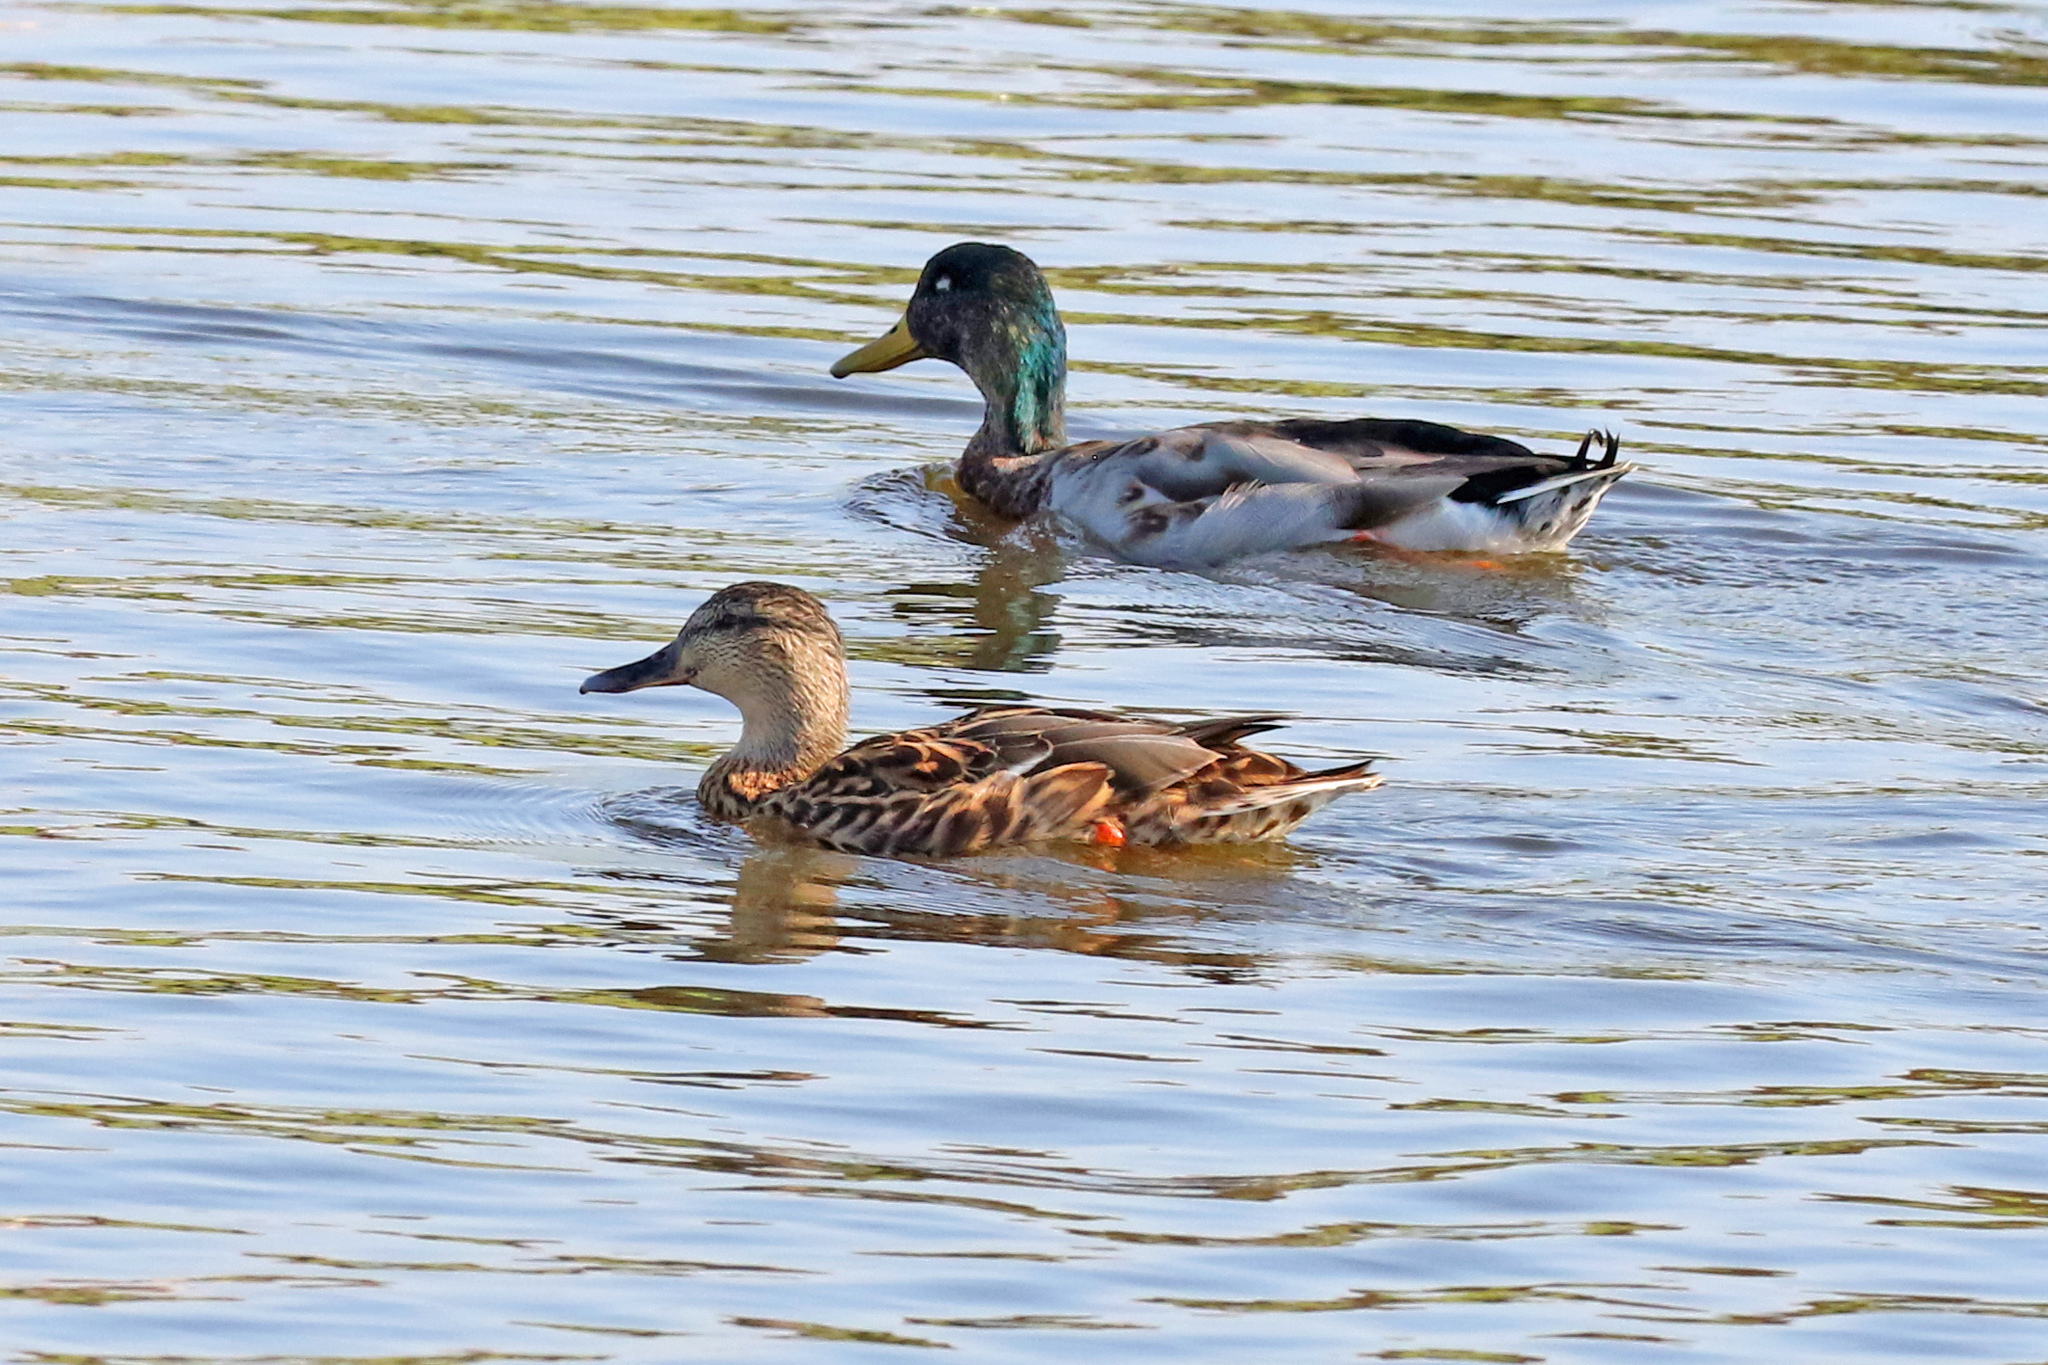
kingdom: Animalia
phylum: Chordata
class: Aves
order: Anseriformes
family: Anatidae
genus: Anas
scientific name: Anas platyrhynchos
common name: Mallard
